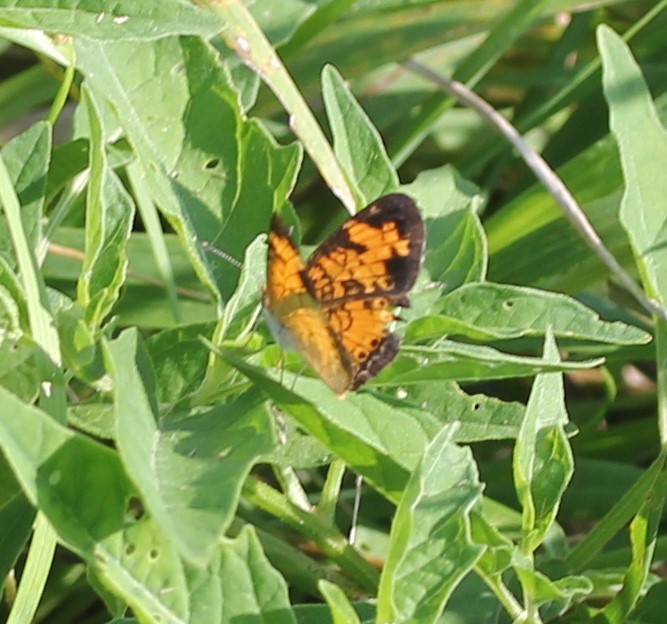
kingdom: Animalia
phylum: Arthropoda
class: Insecta
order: Lepidoptera
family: Nymphalidae
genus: Phyciodes
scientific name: Phyciodes tharos
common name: Pearl crescent
